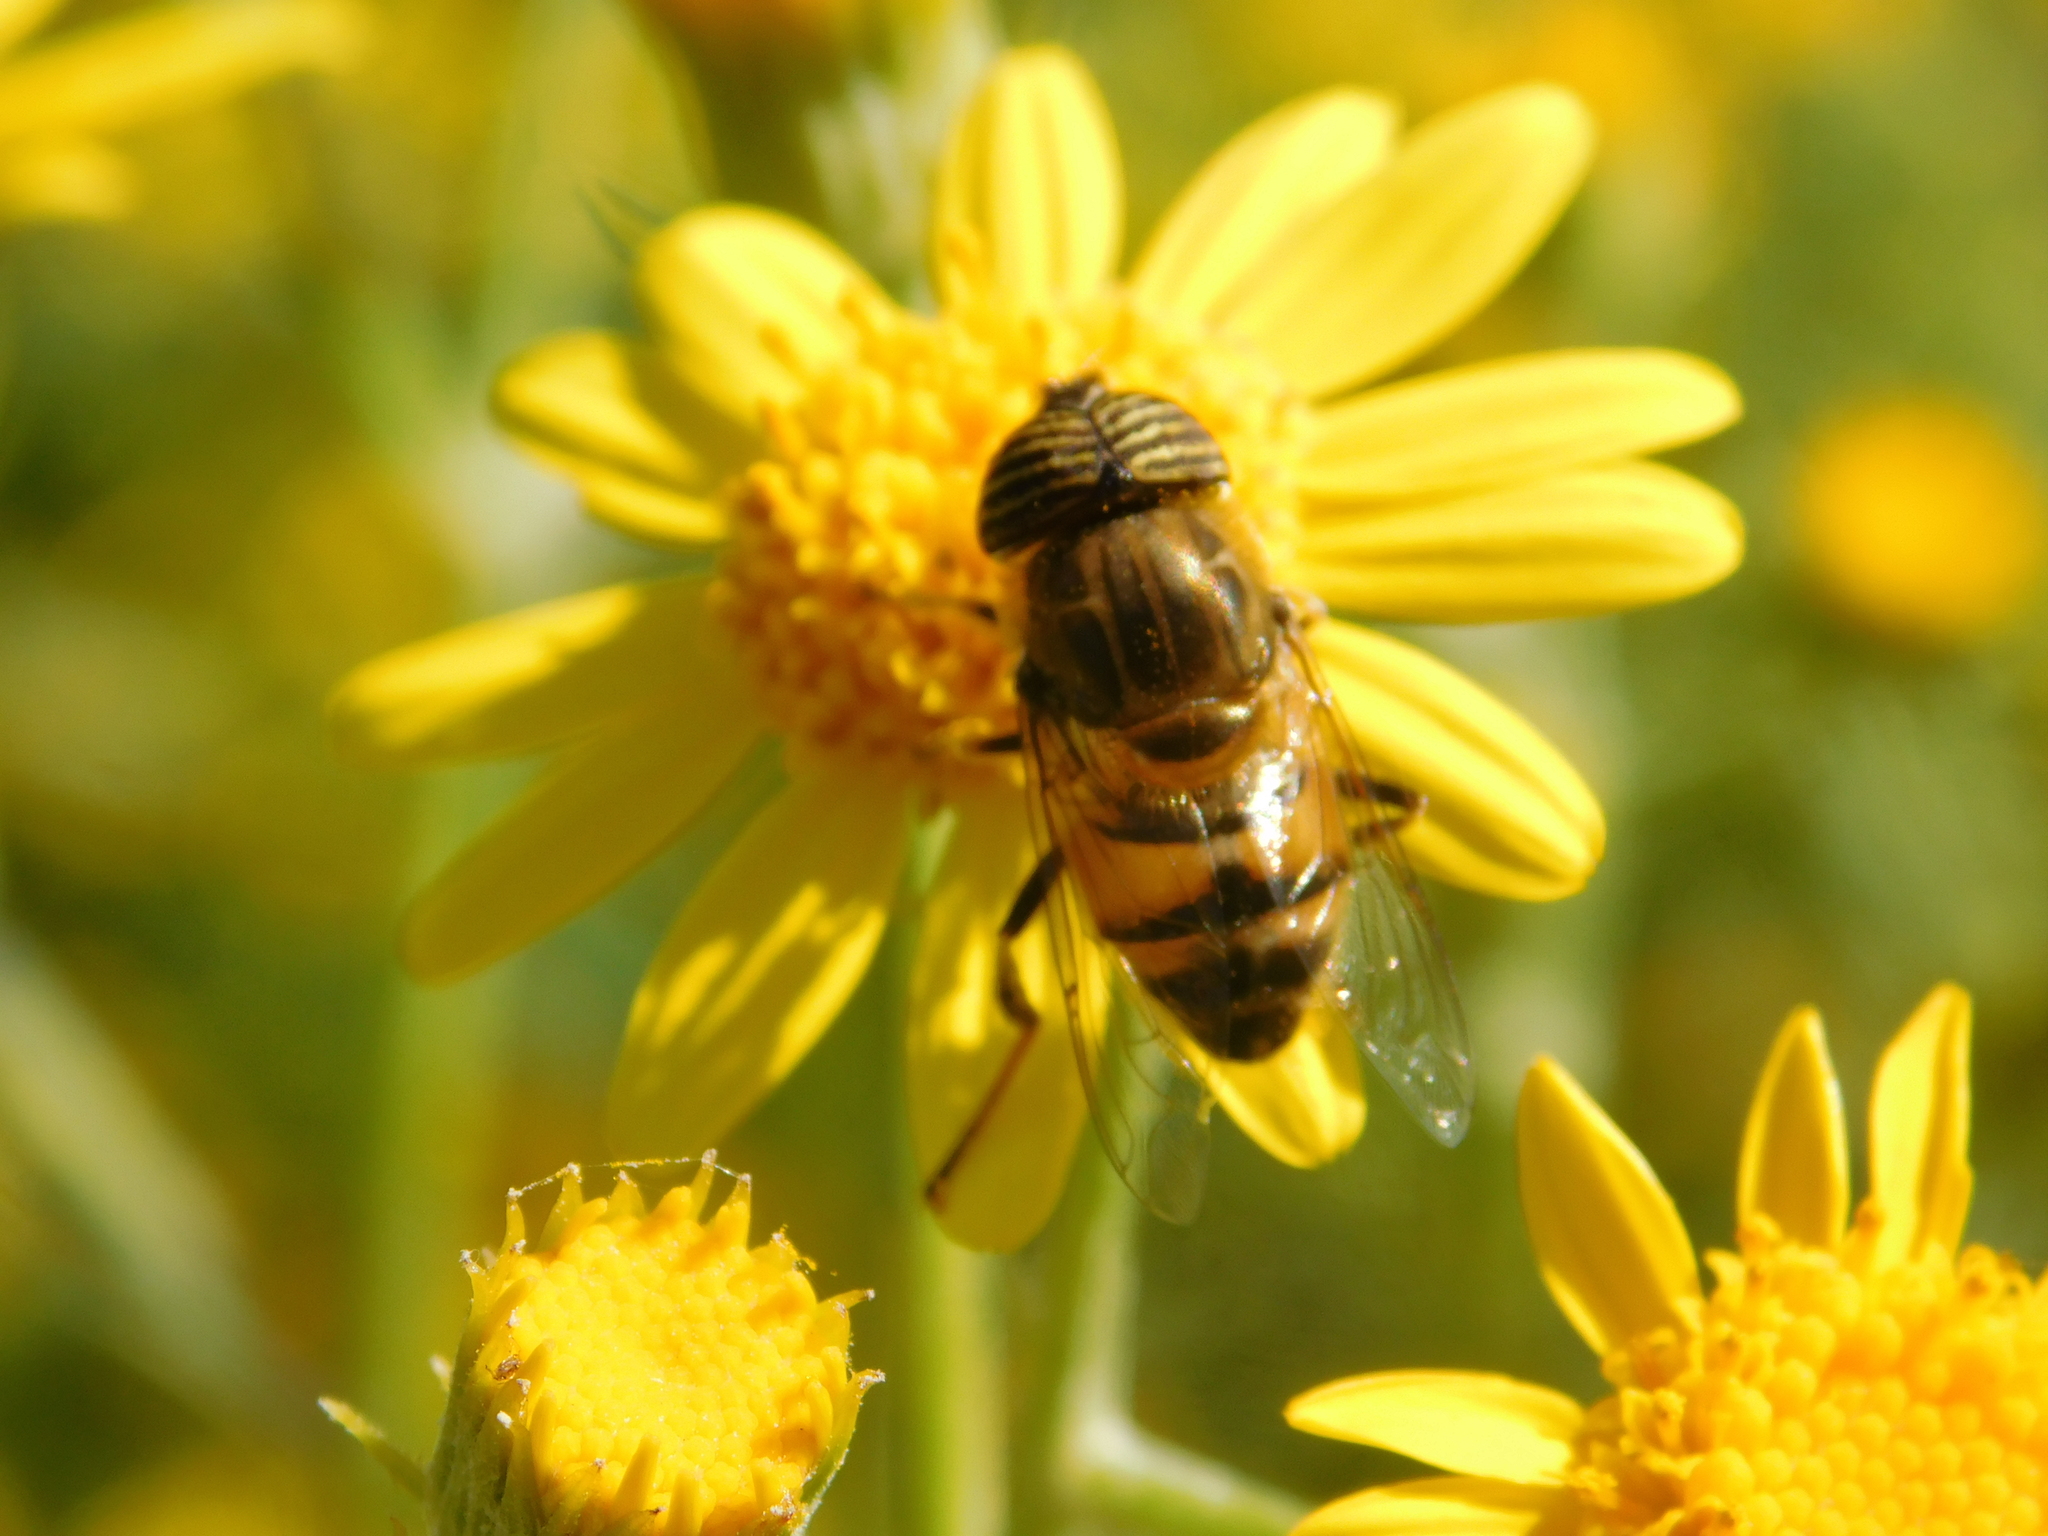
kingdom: Animalia
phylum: Arthropoda
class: Insecta
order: Diptera
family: Syrphidae
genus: Eristalinus
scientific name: Eristalinus taeniops
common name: Syrphid fly
